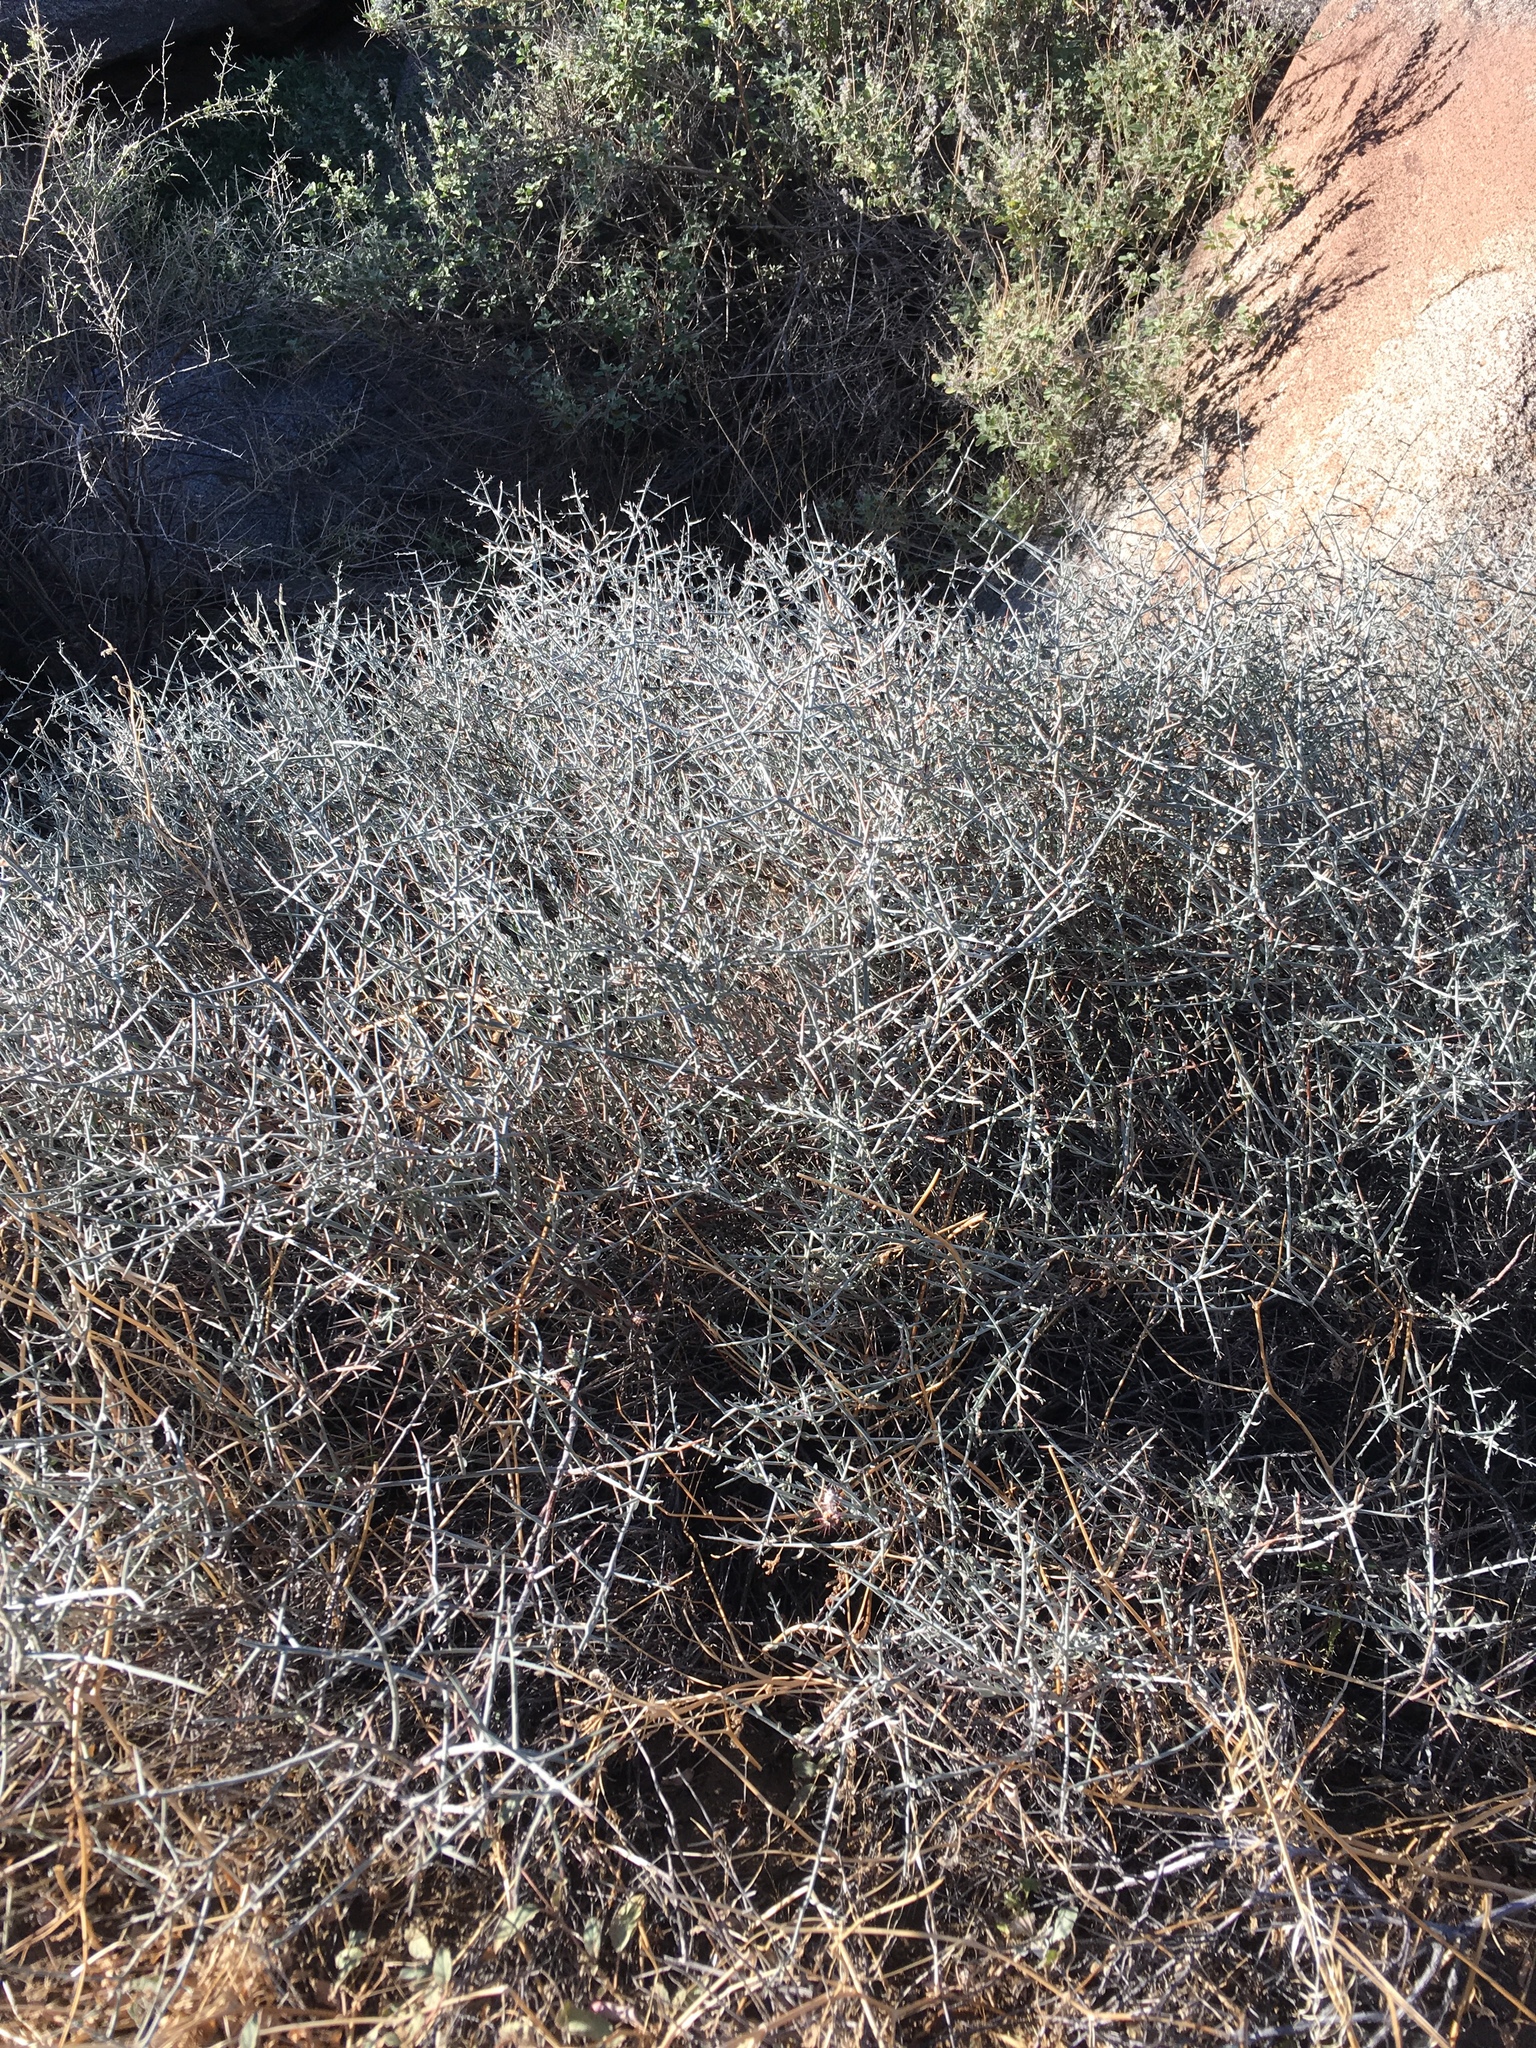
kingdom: Plantae
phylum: Tracheophyta
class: Magnoliopsida
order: Zygophyllales
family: Krameriaceae
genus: Krameria
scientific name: Krameria bicolor
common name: White ratany
